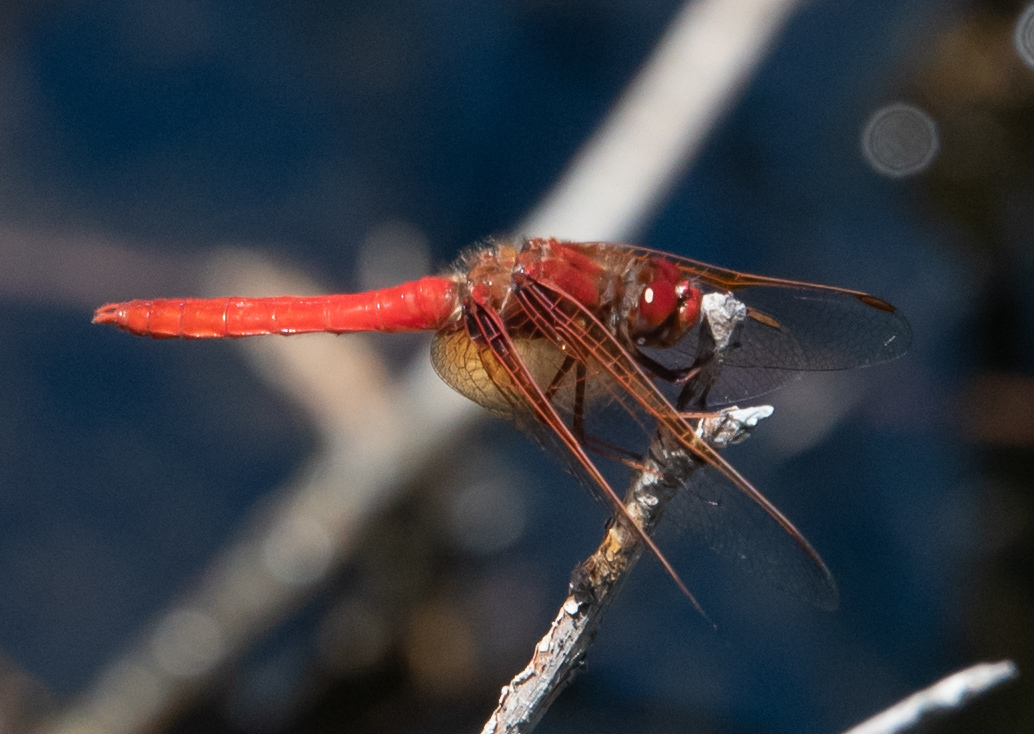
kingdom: Animalia
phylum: Arthropoda
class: Insecta
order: Odonata
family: Libellulidae
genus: Sympetrum
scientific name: Sympetrum illotum
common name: Cardinal meadowhawk
